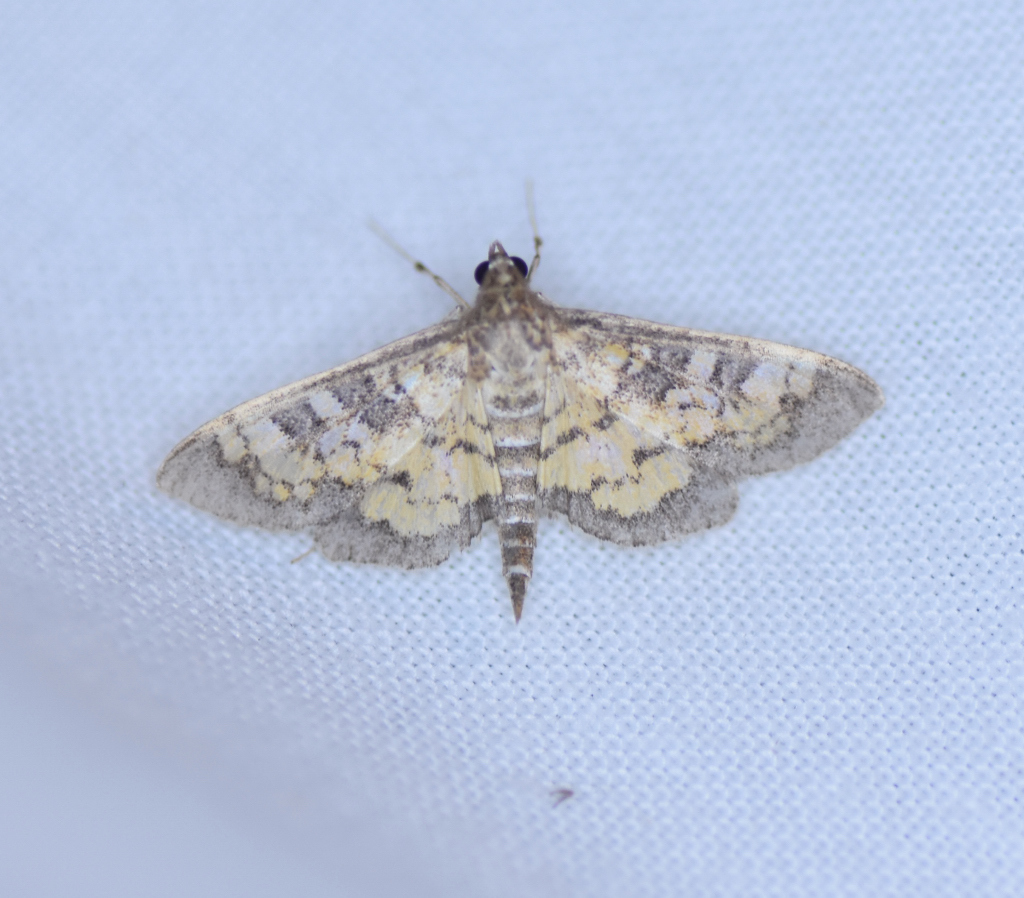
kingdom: Animalia
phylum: Arthropoda
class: Insecta
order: Lepidoptera
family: Crambidae
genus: Epipagis
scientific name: Epipagis adipaloides
